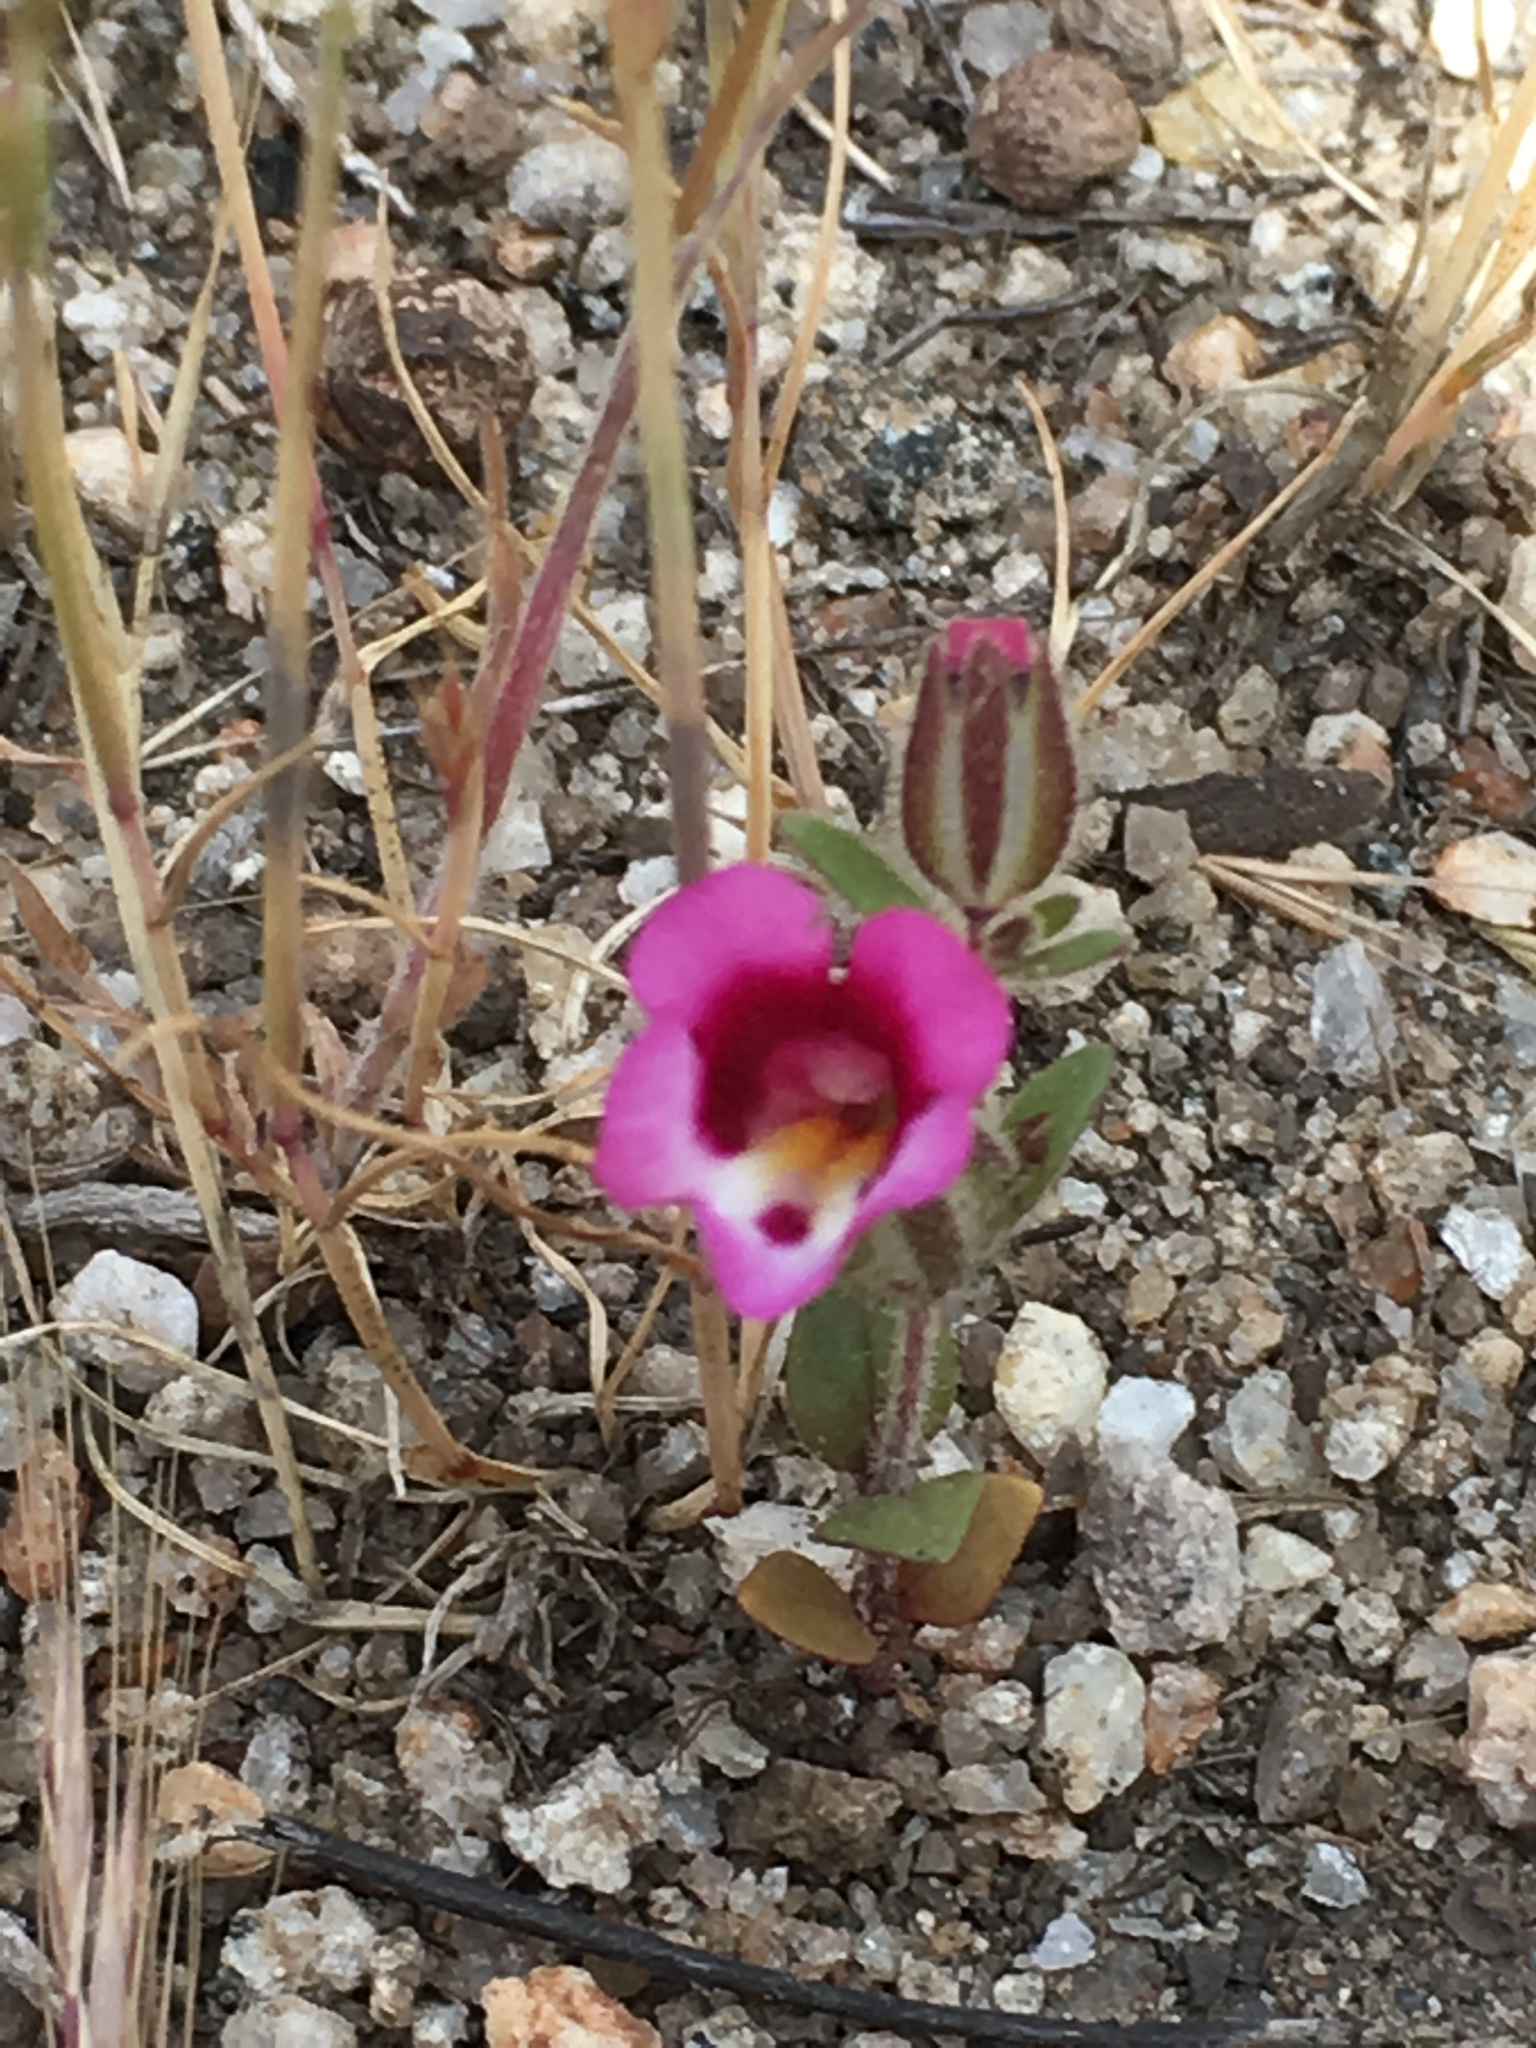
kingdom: Plantae
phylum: Tracheophyta
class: Magnoliopsida
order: Lamiales
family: Phrymaceae
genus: Diplacus
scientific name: Diplacus compactus
